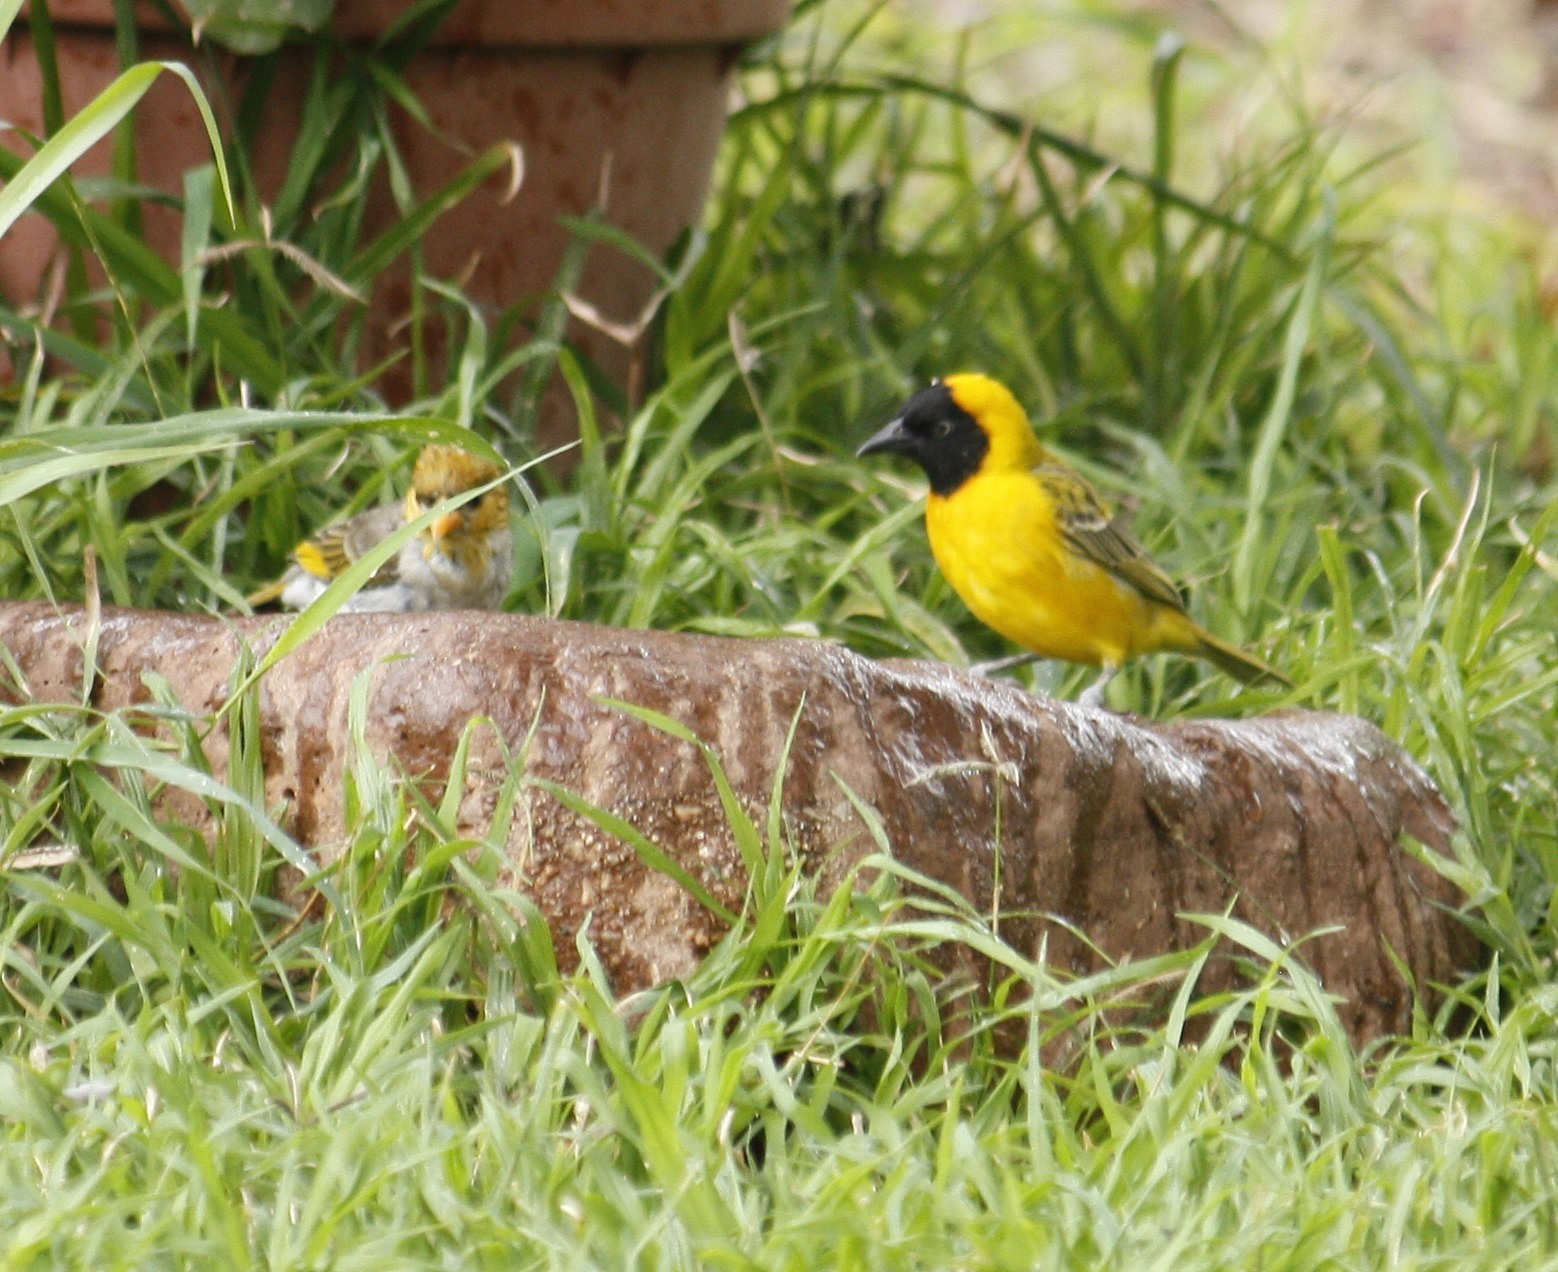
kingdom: Animalia
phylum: Chordata
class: Aves
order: Passeriformes
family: Ploceidae
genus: Ploceus
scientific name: Ploceus intermedius
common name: Lesser masked weaver
